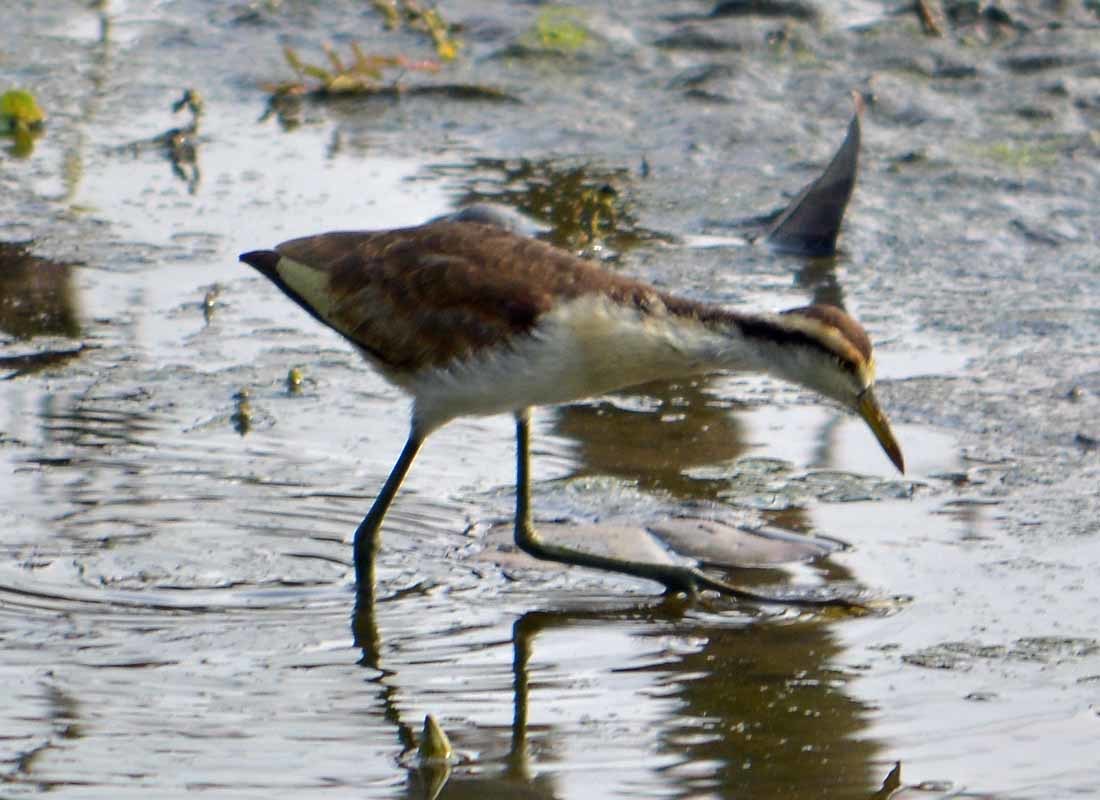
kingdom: Animalia
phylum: Chordata
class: Aves
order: Charadriiformes
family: Jacanidae
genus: Jacana
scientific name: Jacana spinosa
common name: Northern jacana
